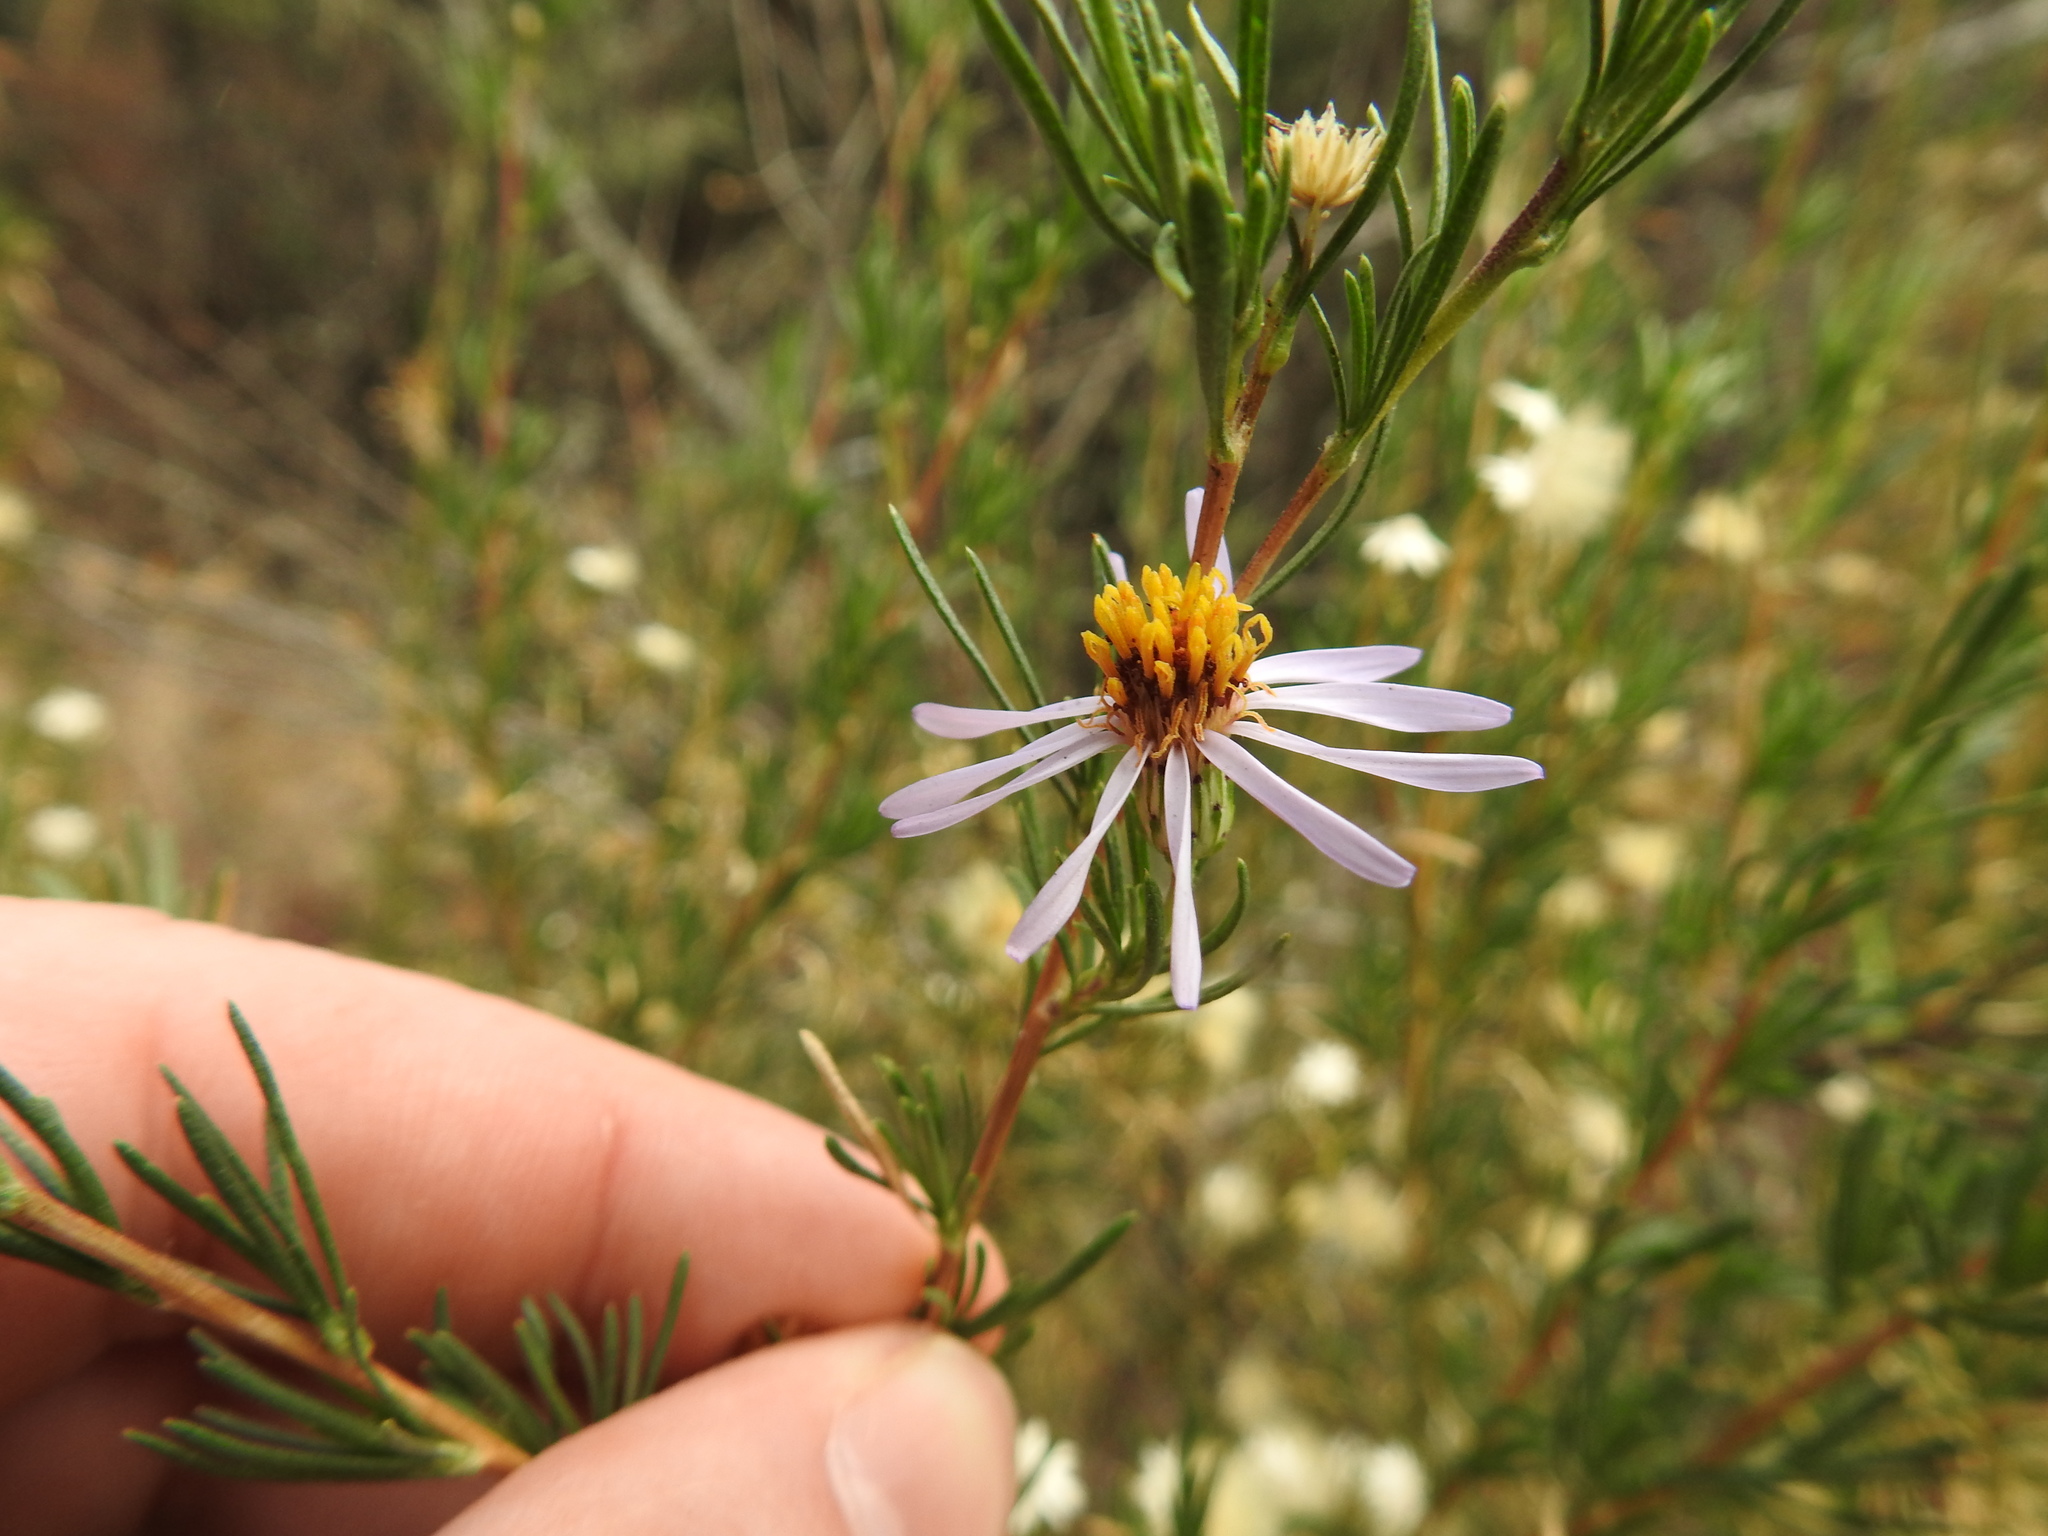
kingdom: Plantae
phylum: Tracheophyta
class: Magnoliopsida
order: Asterales
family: Asteraceae
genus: Felicia
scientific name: Felicia filifolia
